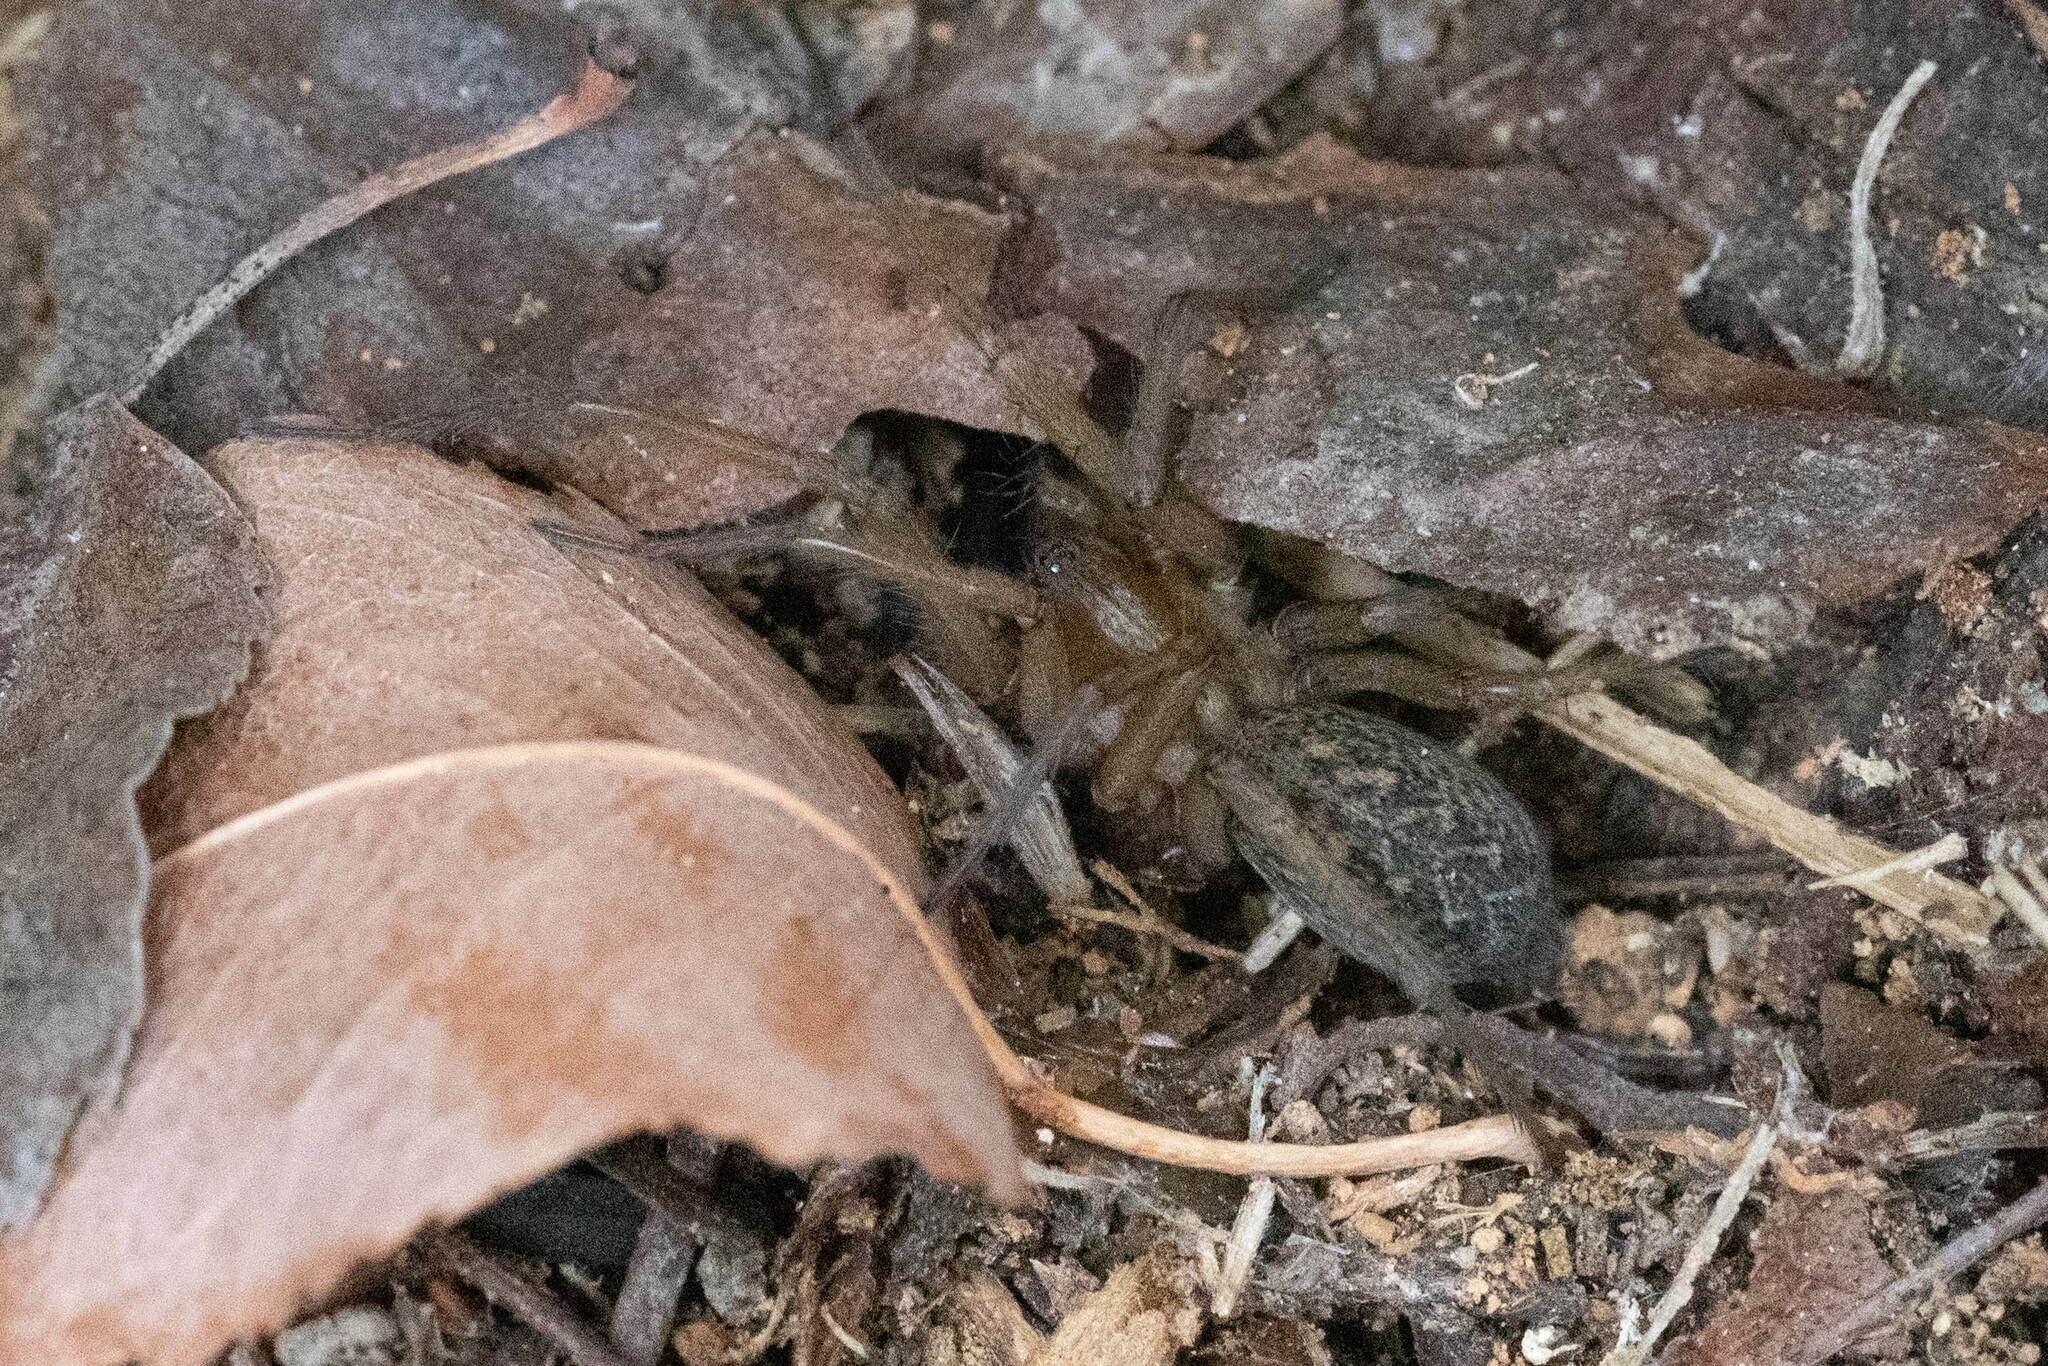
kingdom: Animalia
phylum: Arthropoda
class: Arachnida
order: Araneae
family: Agelenidae
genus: Eratigena
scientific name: Eratigena agrestis
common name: Hobo spider
